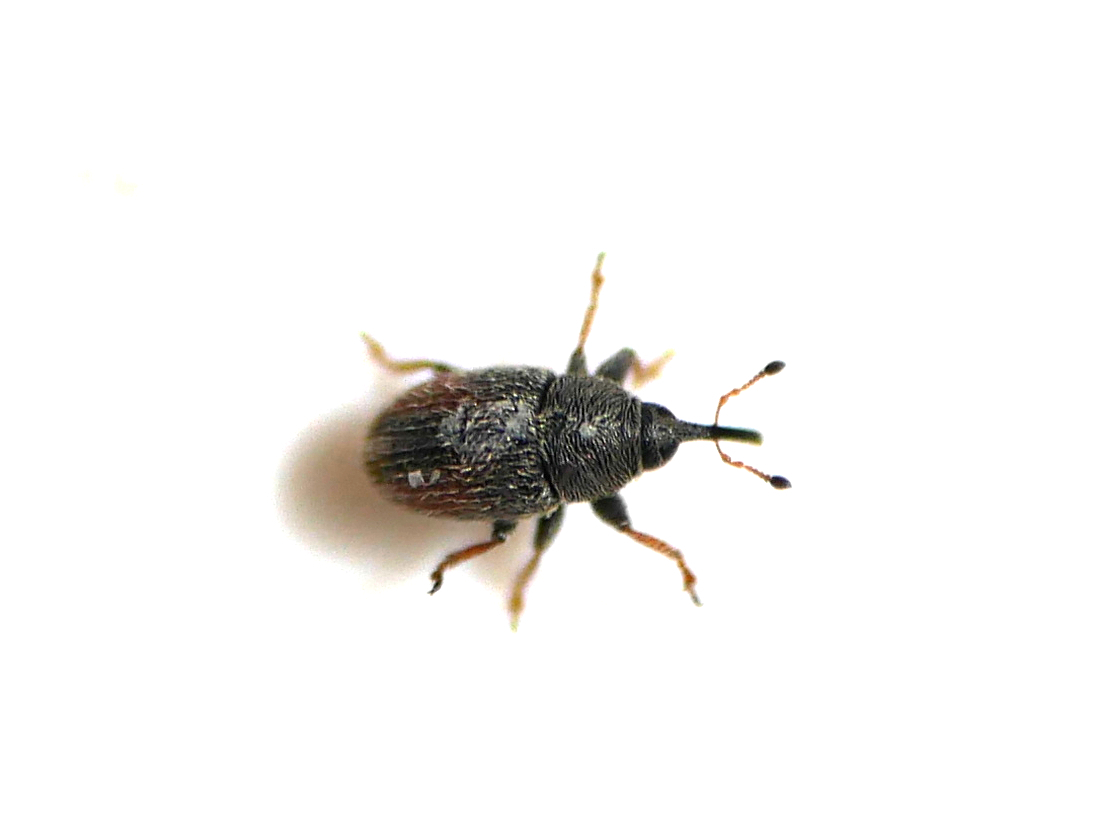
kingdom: Animalia
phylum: Arthropoda
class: Insecta
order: Coleoptera
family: Curculionidae
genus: Mecinus
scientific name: Mecinus pascuorum
